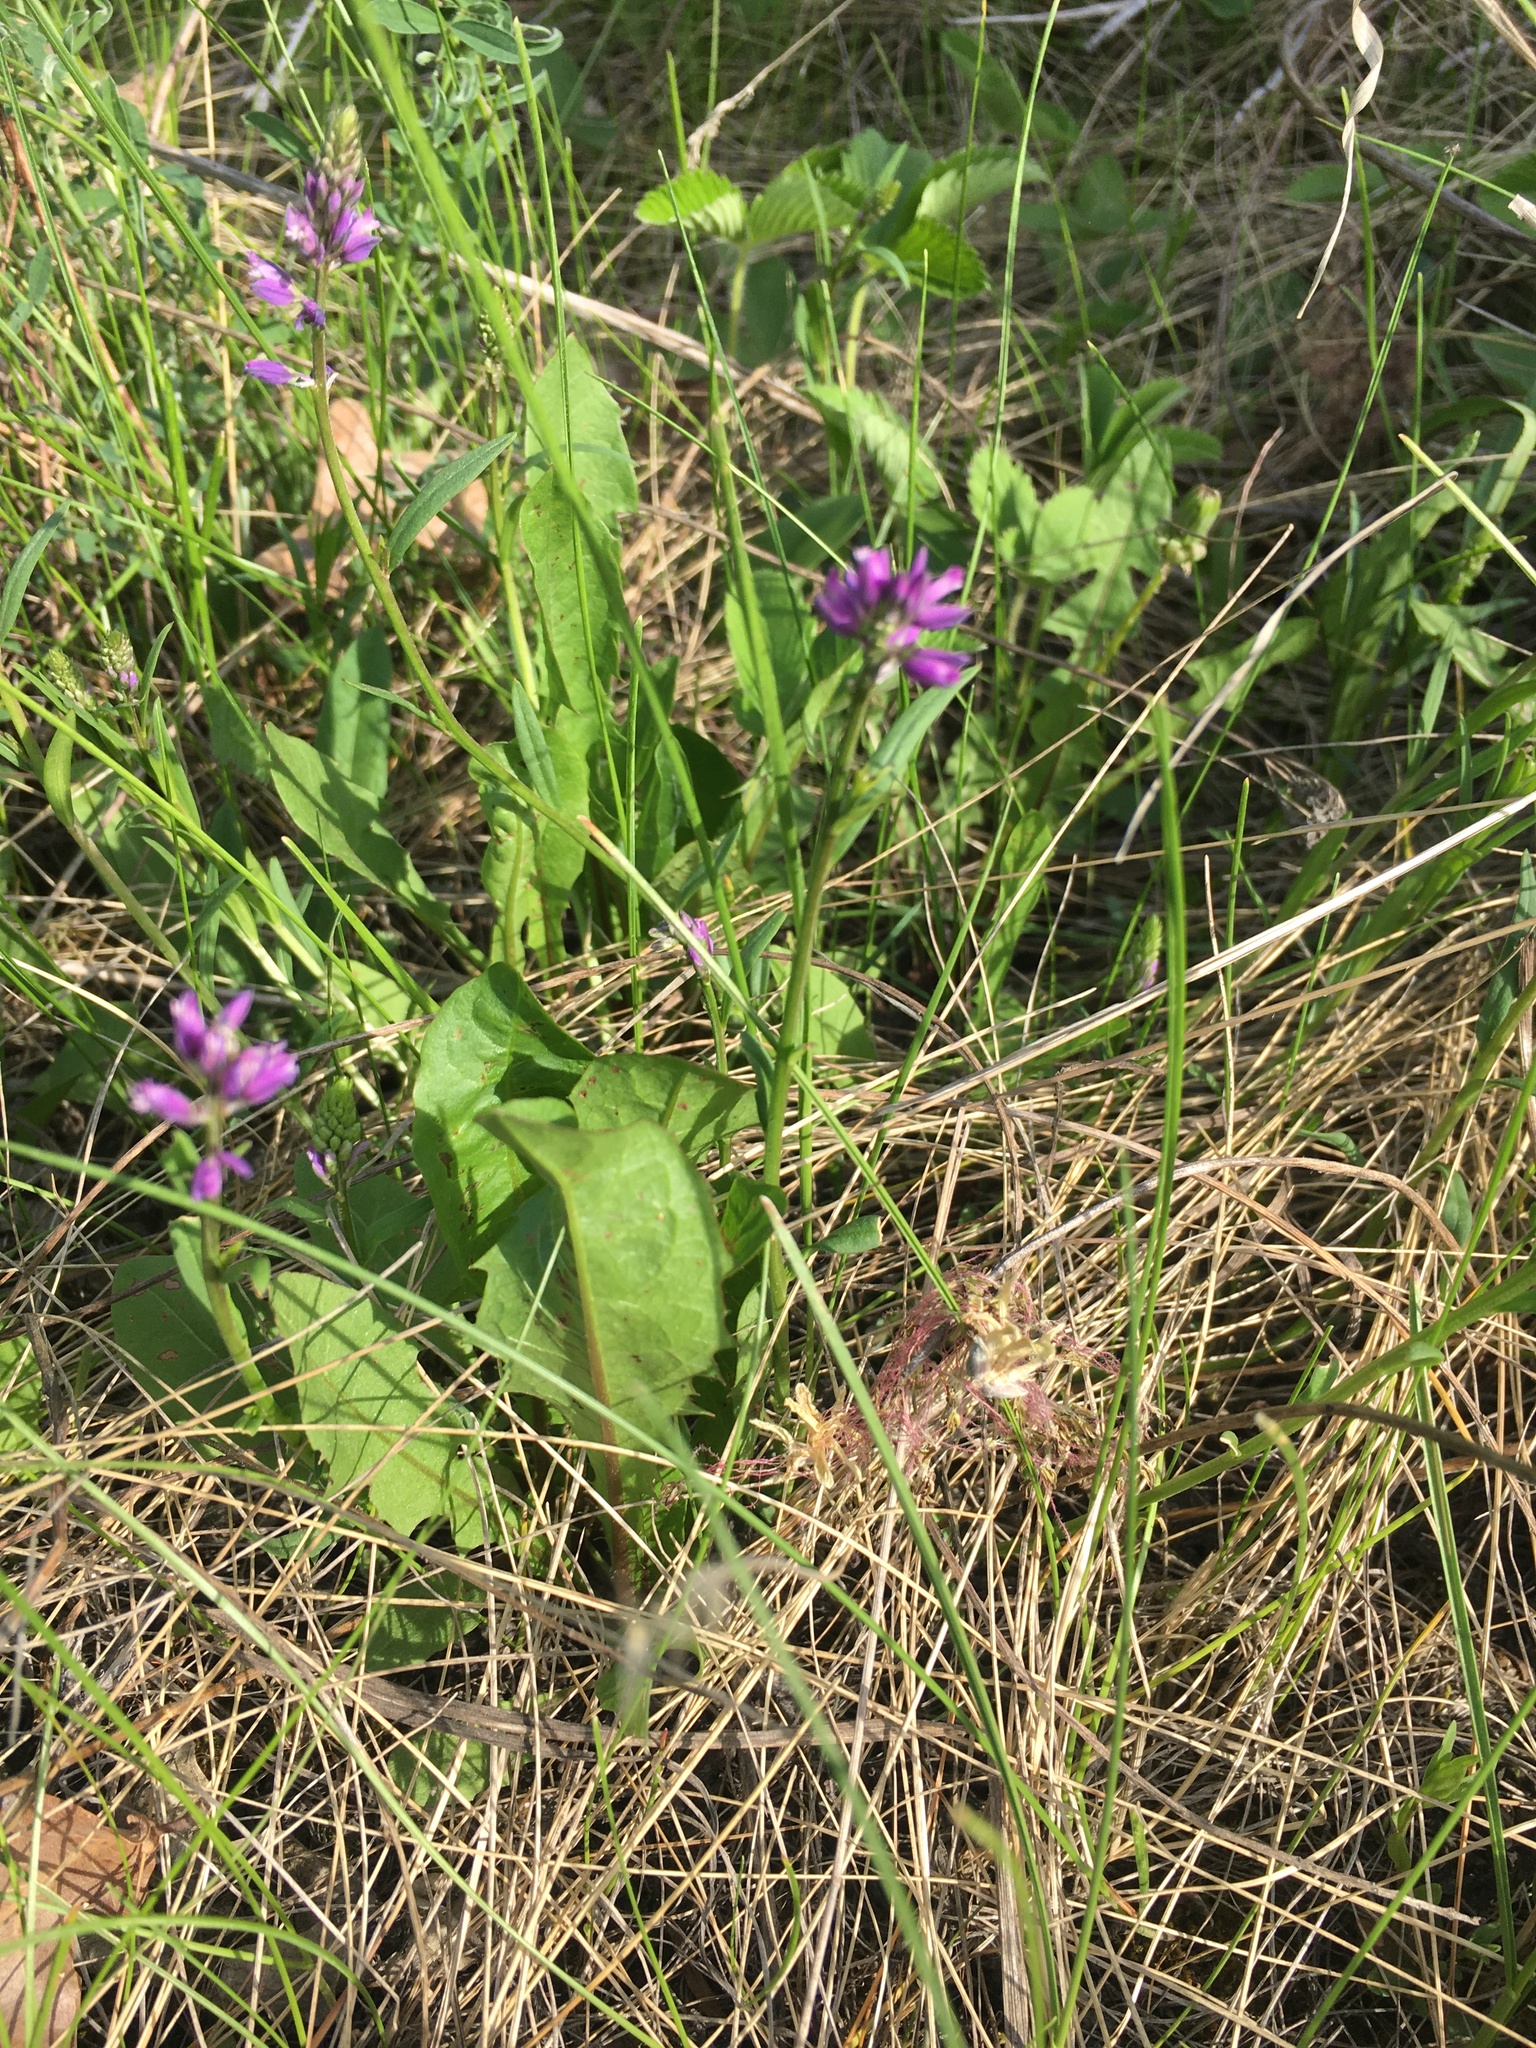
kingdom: Plantae
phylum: Tracheophyta
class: Magnoliopsida
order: Fabales
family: Polygalaceae
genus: Polygala
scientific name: Polygala comosa
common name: Tufted milkwort
